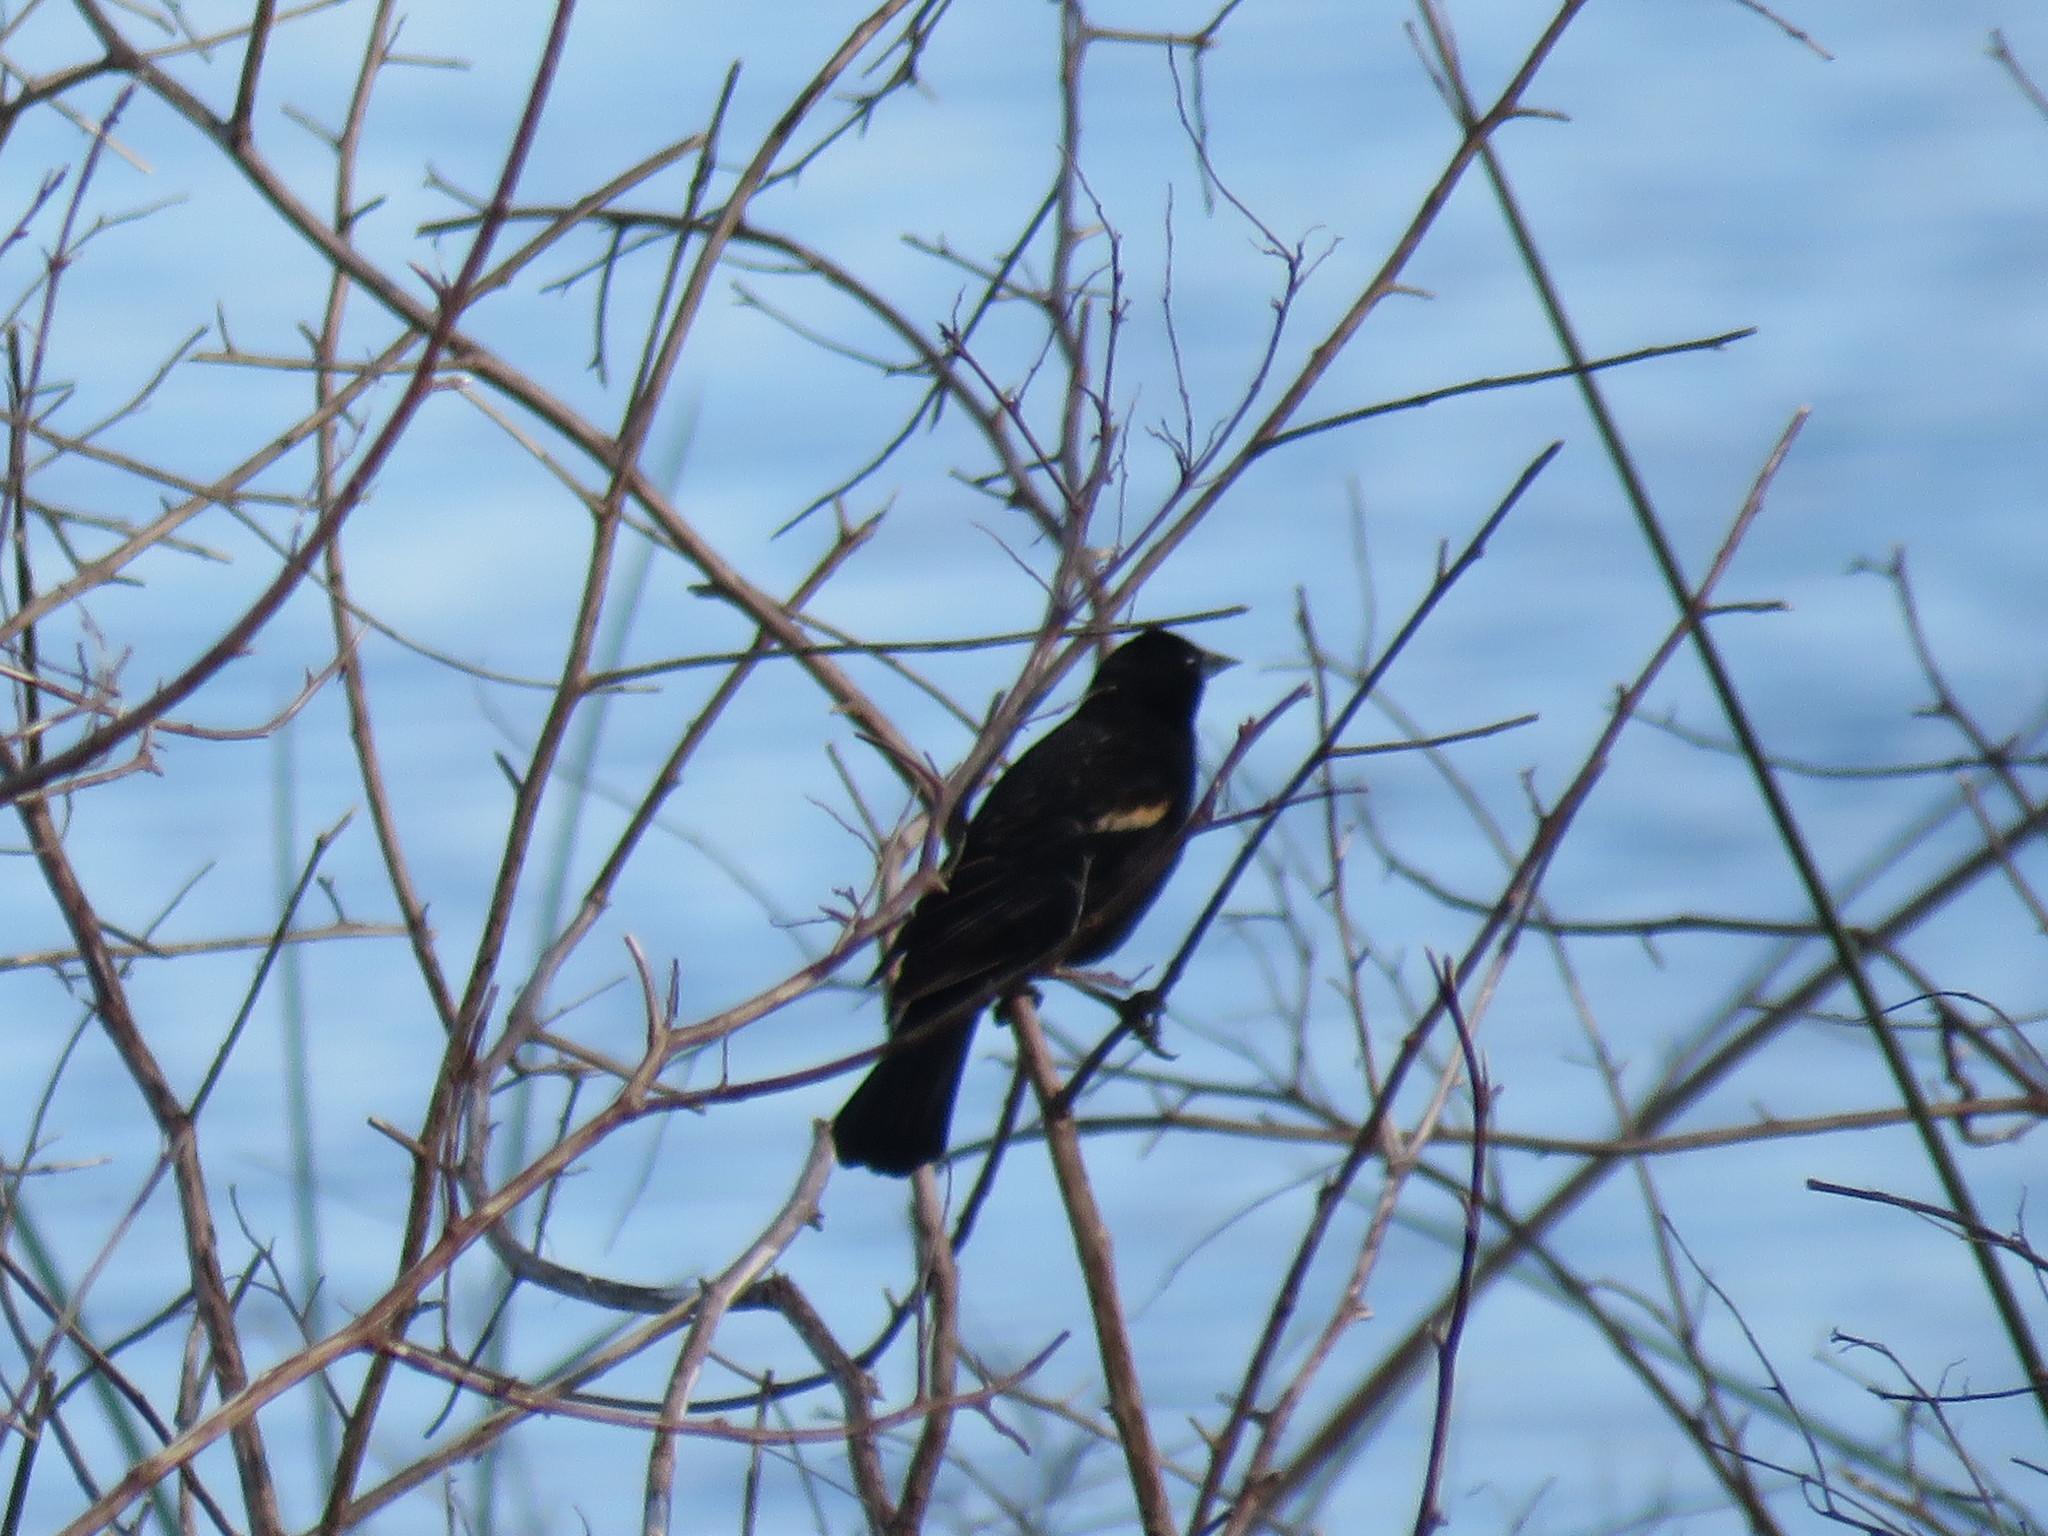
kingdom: Animalia
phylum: Chordata
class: Aves
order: Passeriformes
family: Icteridae
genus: Agelaius
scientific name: Agelaius phoeniceus
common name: Red-winged blackbird
